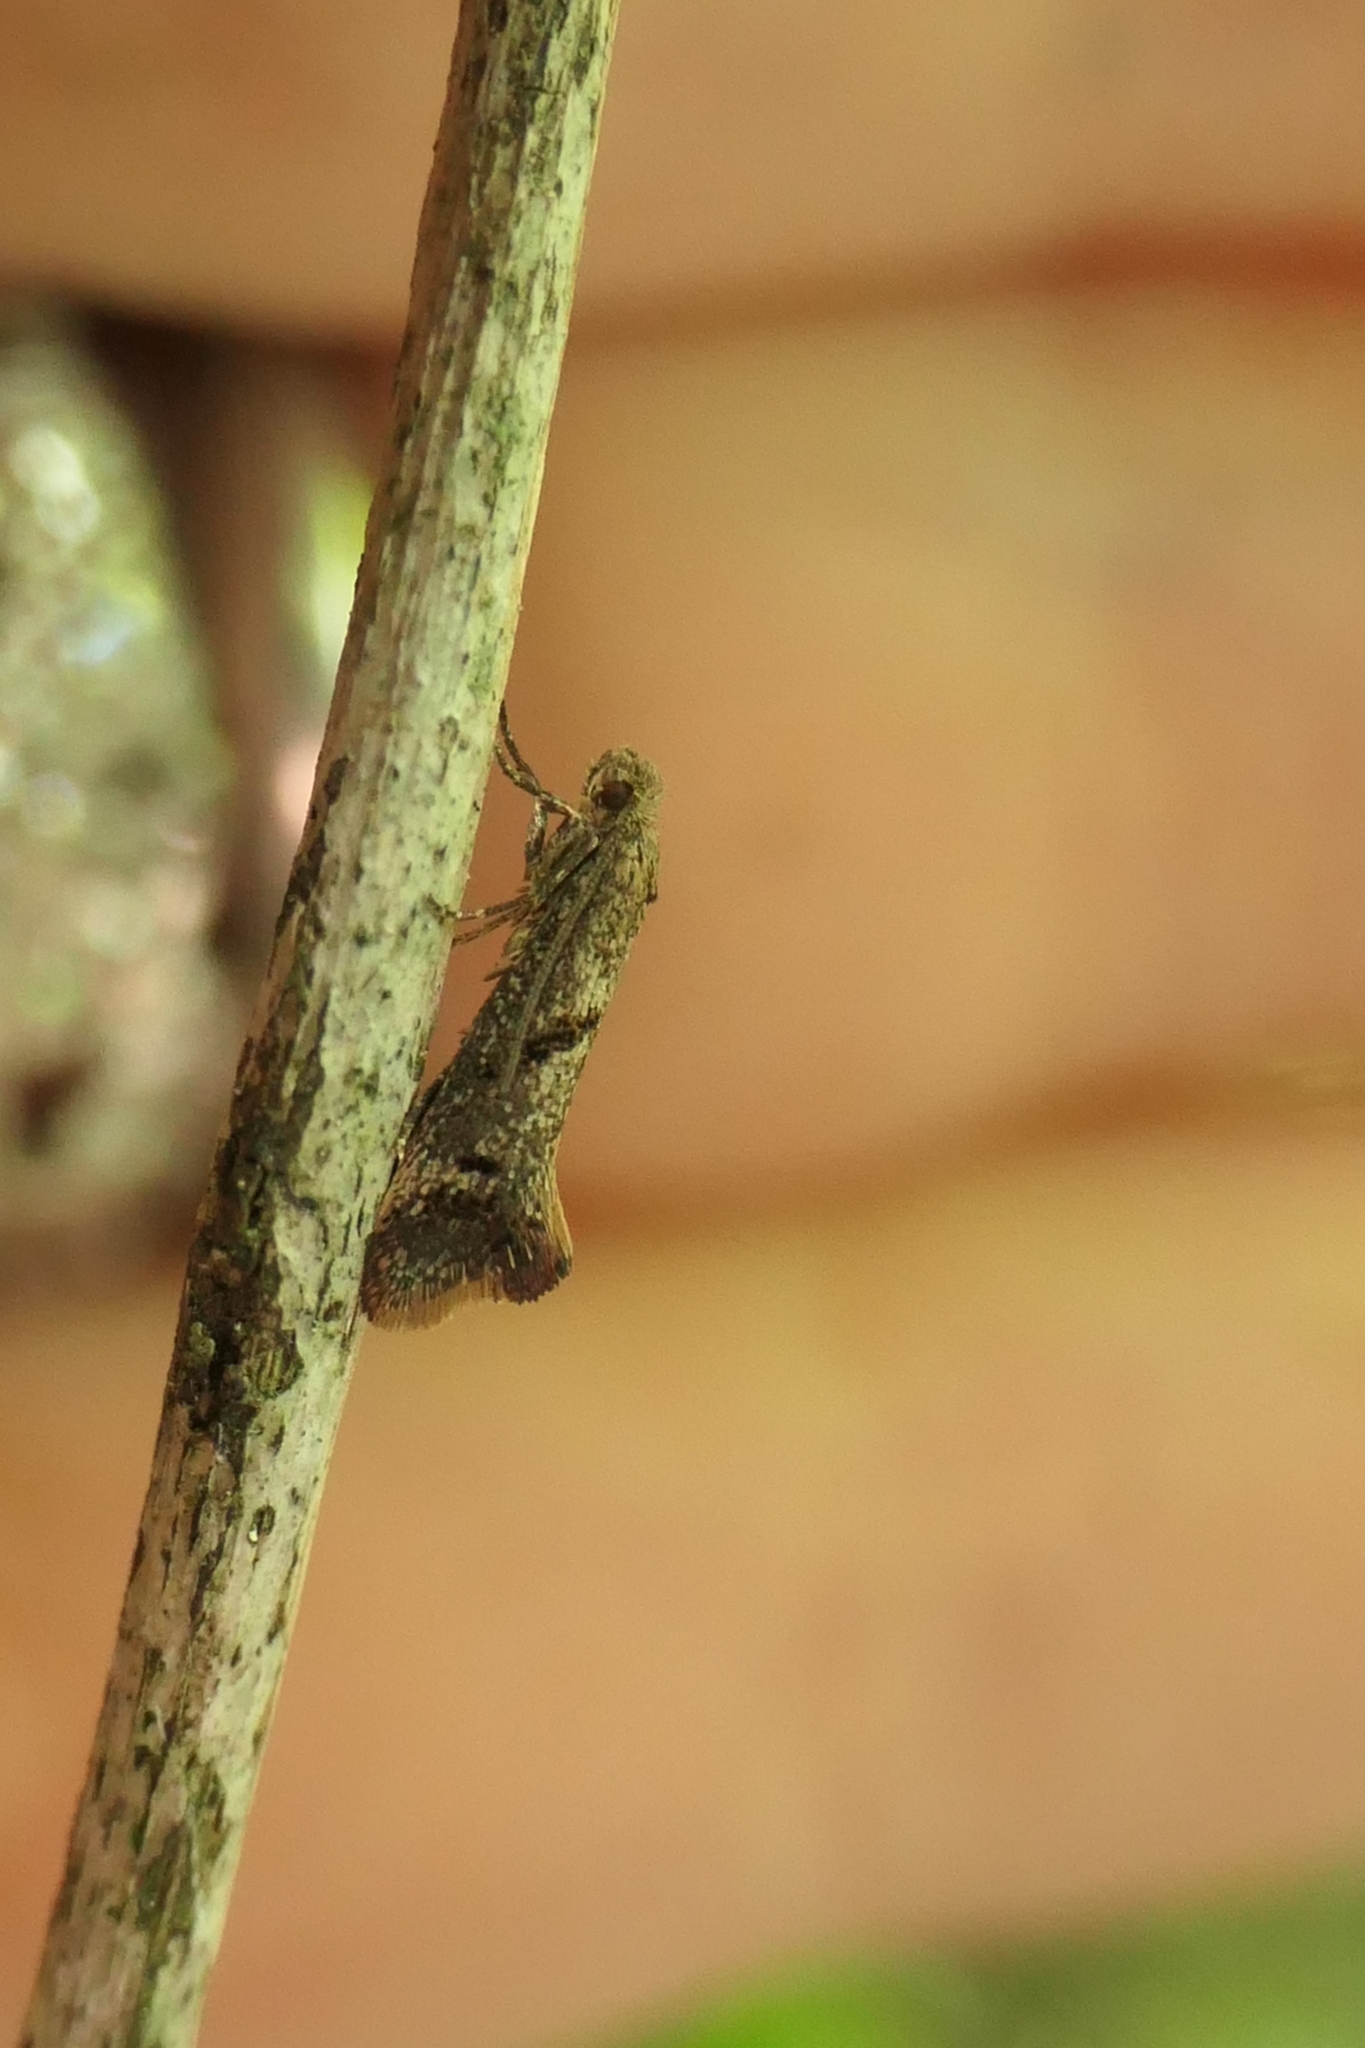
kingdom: Animalia
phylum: Arthropoda
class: Insecta
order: Lepidoptera
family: Tineidae
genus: Tinea
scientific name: Tinea mochlota
